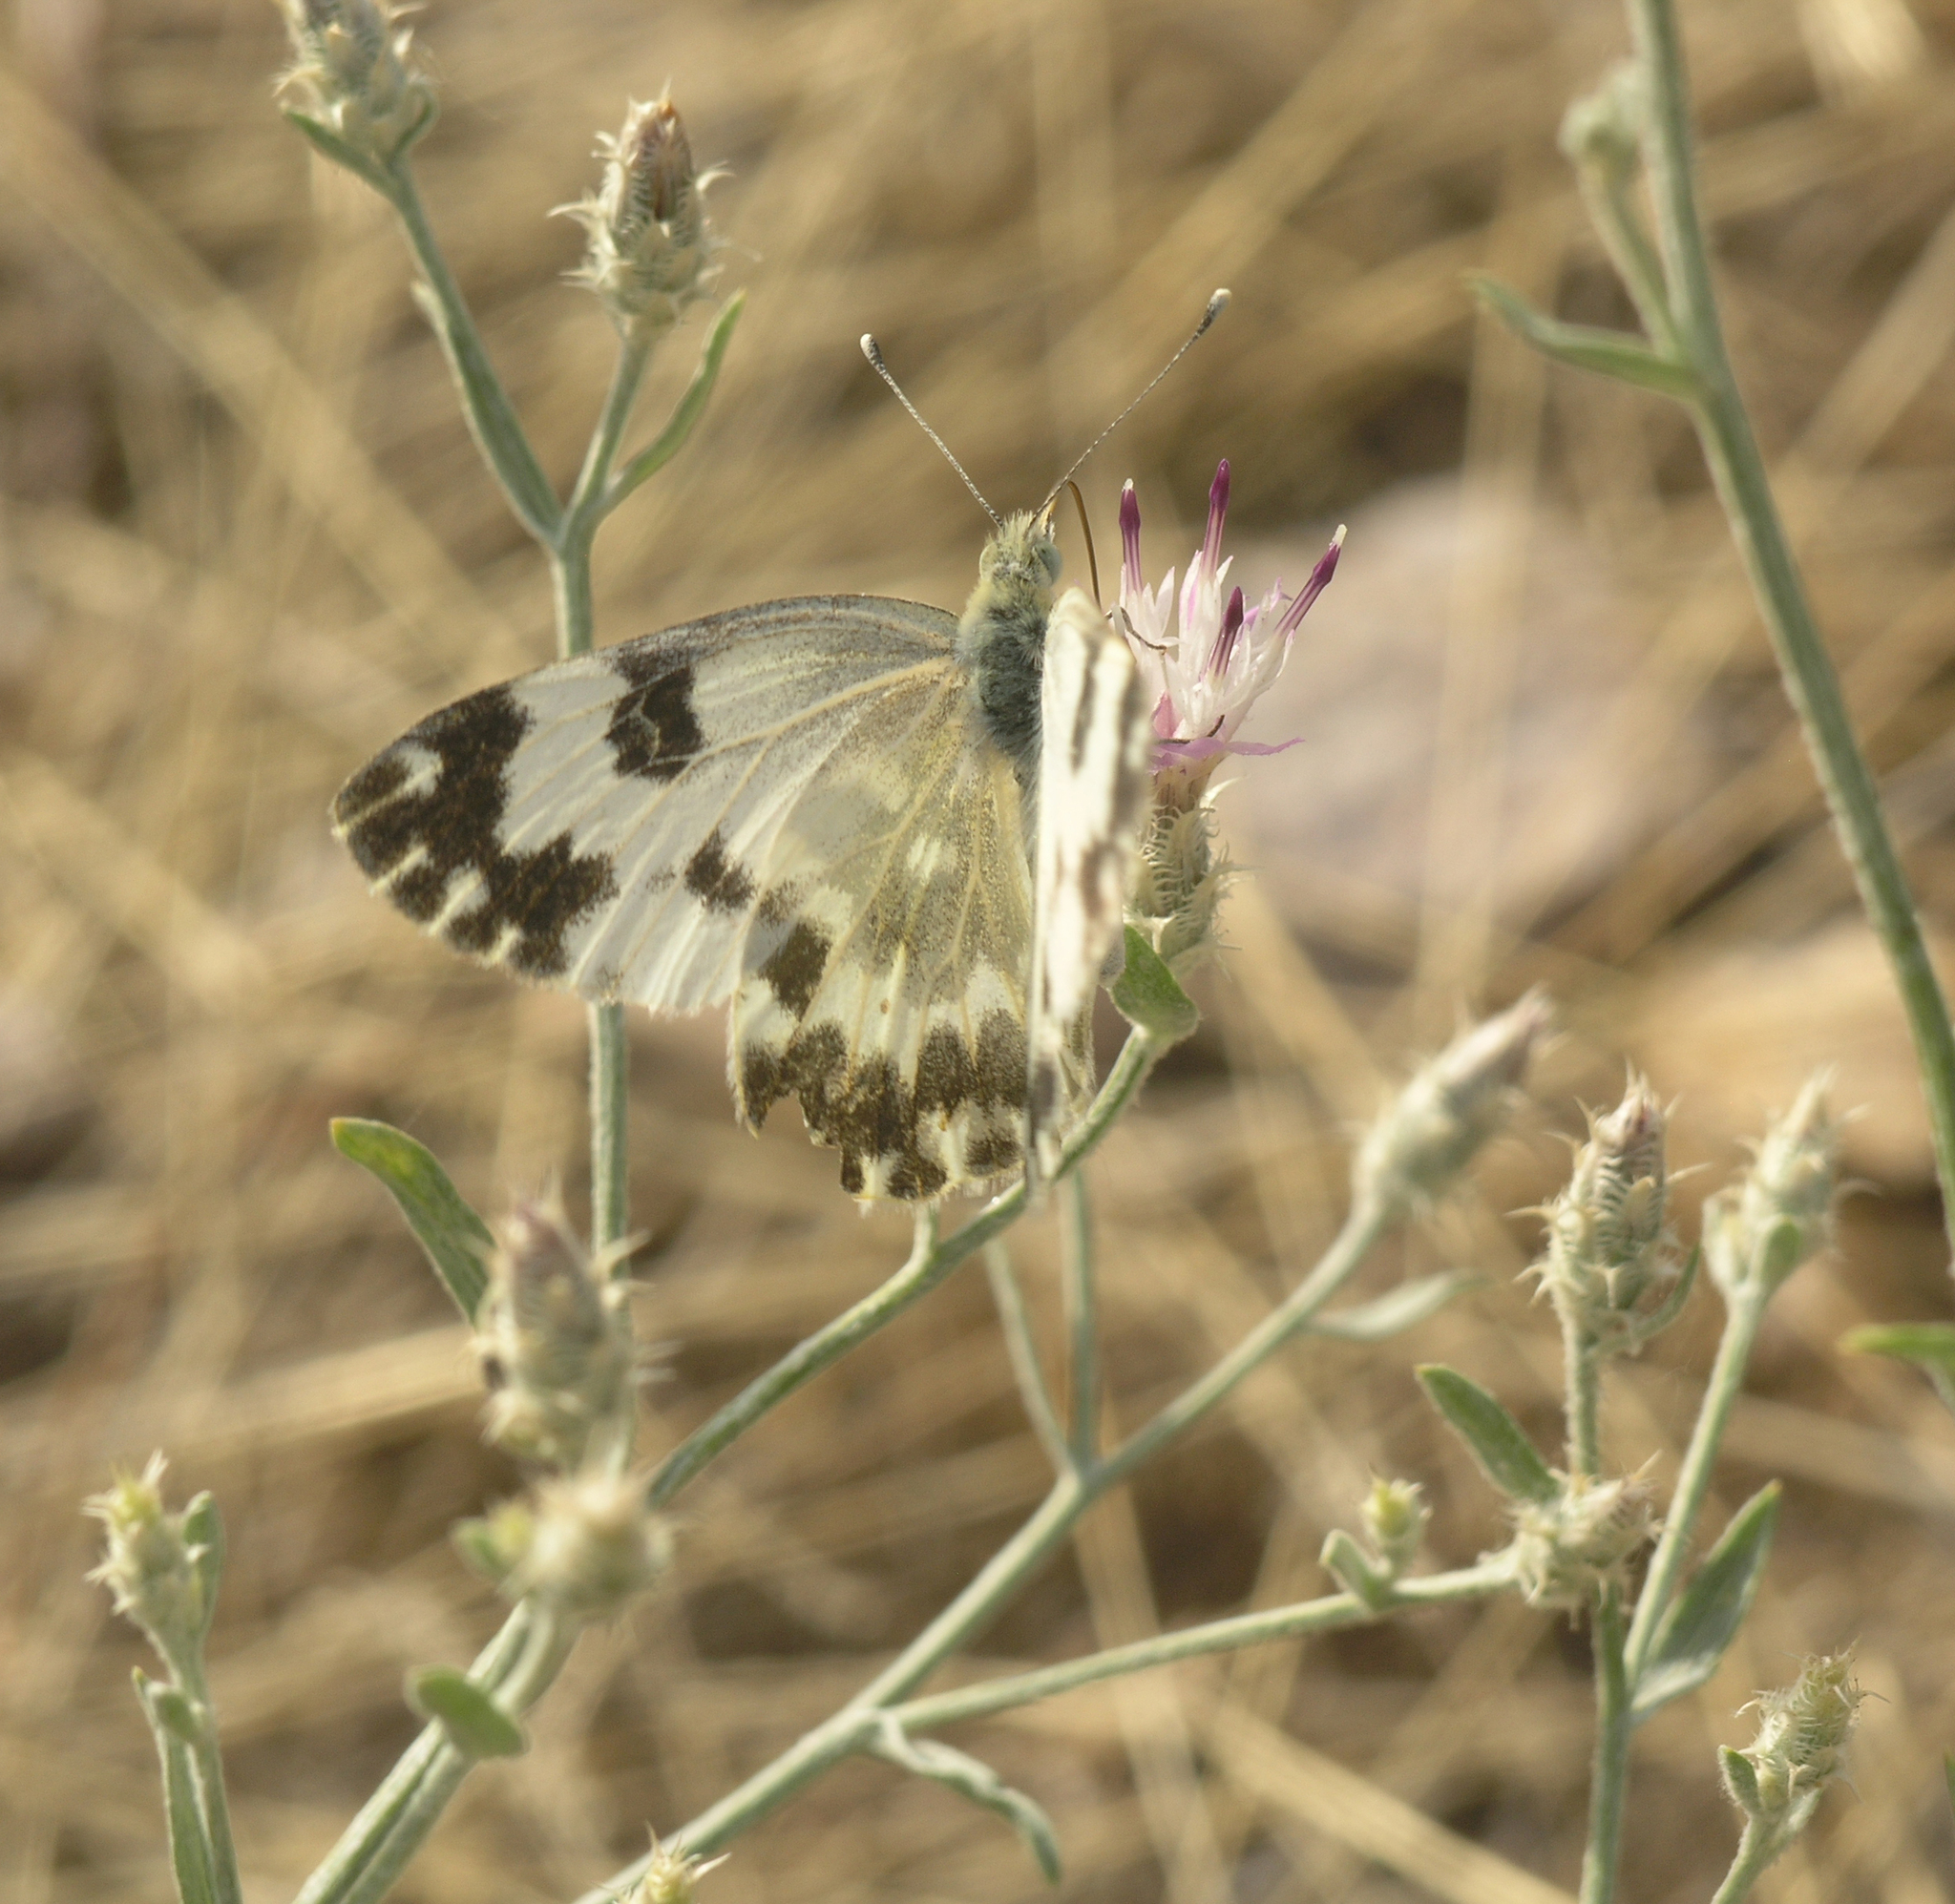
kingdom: Plantae
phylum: Tracheophyta
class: Magnoliopsida
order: Asterales
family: Asteraceae
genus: Centaurea
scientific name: Centaurea virgata
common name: Squarrose knapweed
